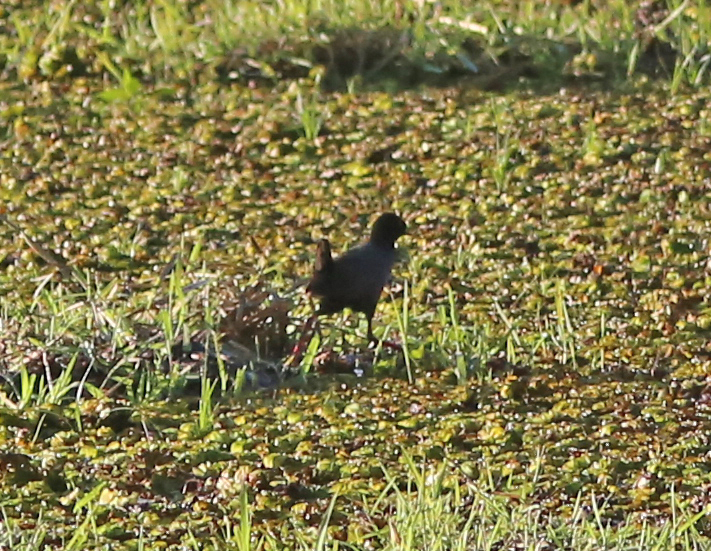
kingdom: Animalia
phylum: Chordata
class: Aves
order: Gruiformes
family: Rallidae
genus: Amaurornis
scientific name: Amaurornis flavirostra
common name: Black crake
